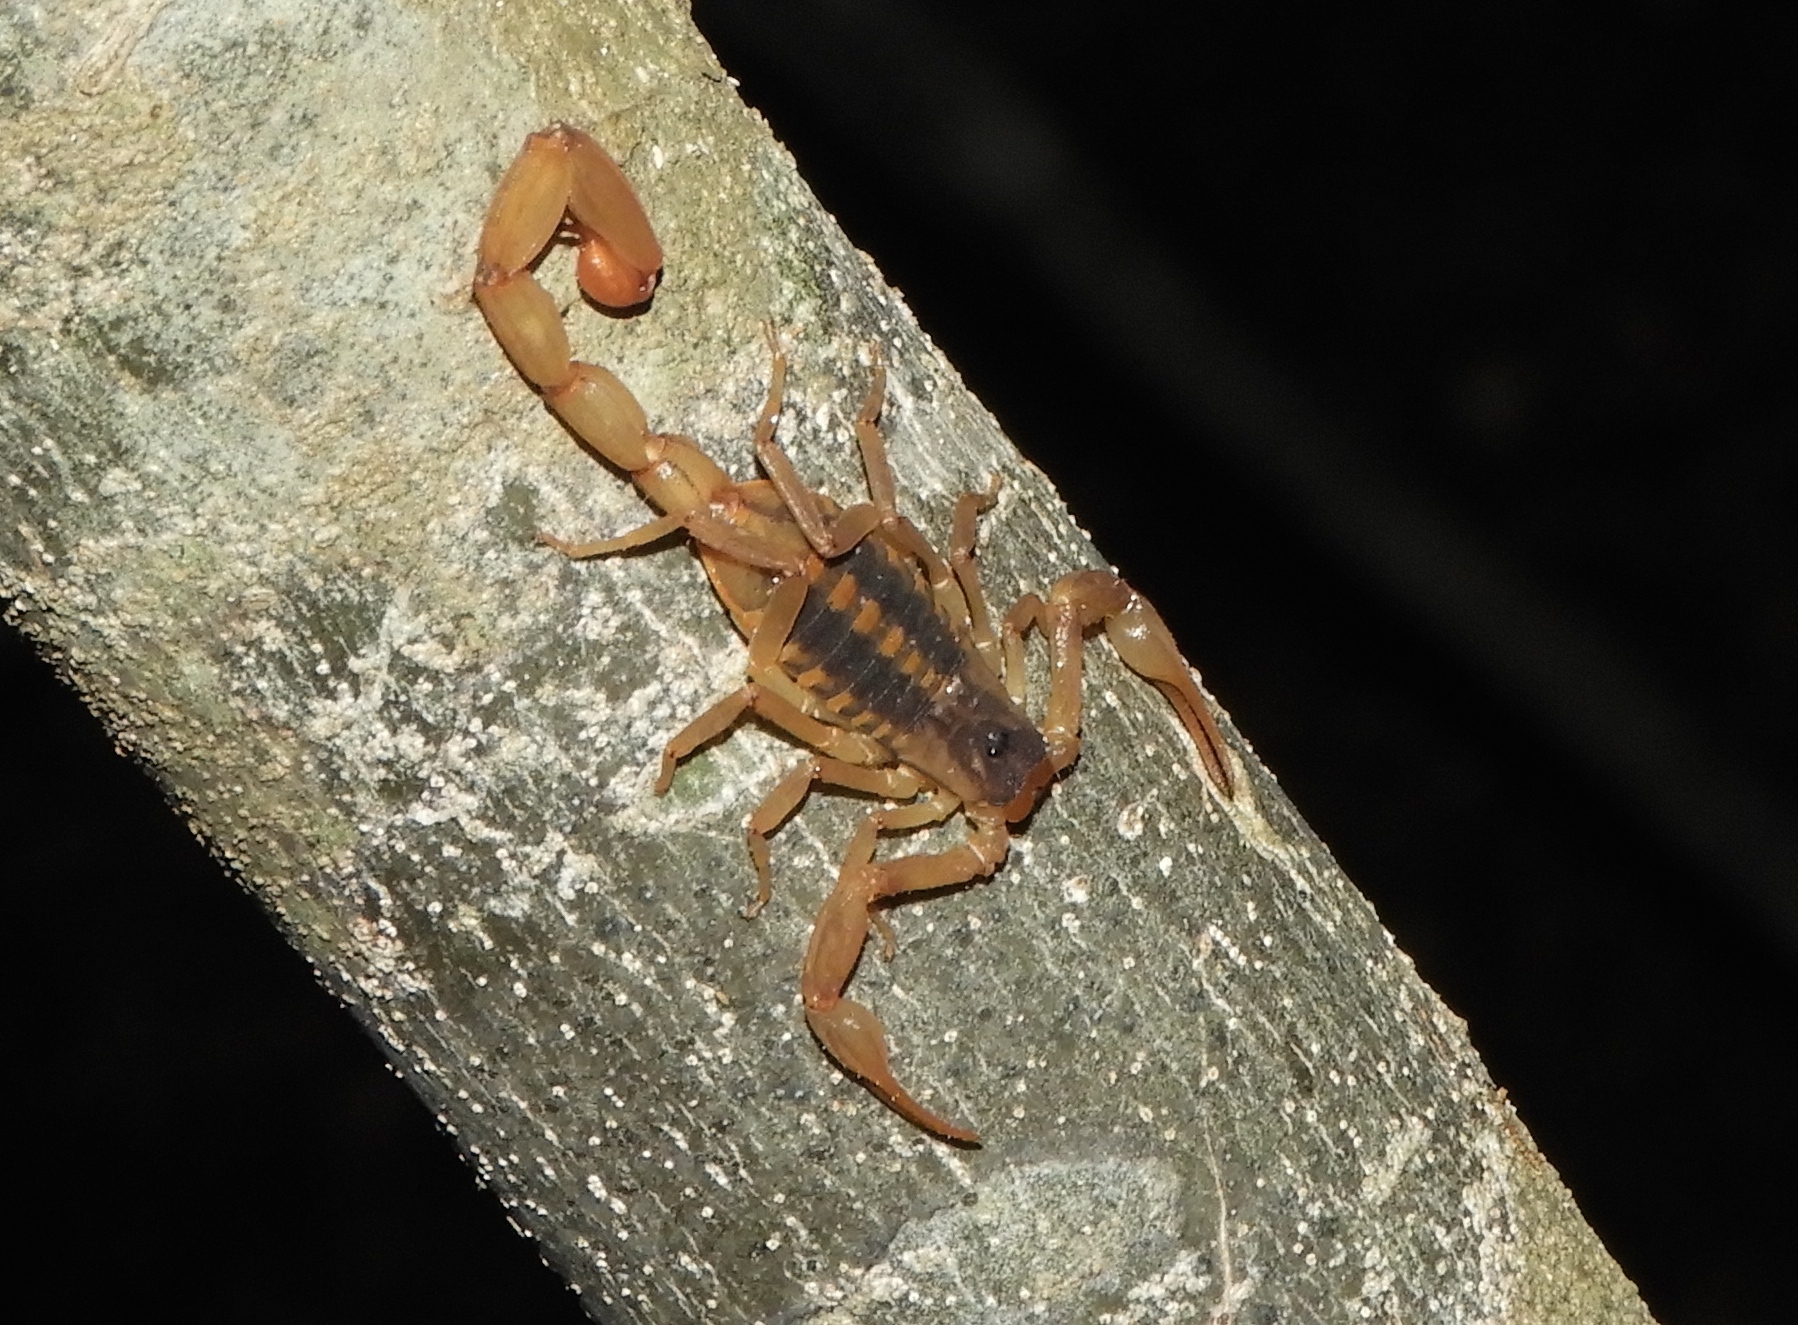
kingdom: Animalia
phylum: Arthropoda
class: Arachnida
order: Scorpiones
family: Buthidae
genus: Centruroides
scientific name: Centruroides baldazoi
